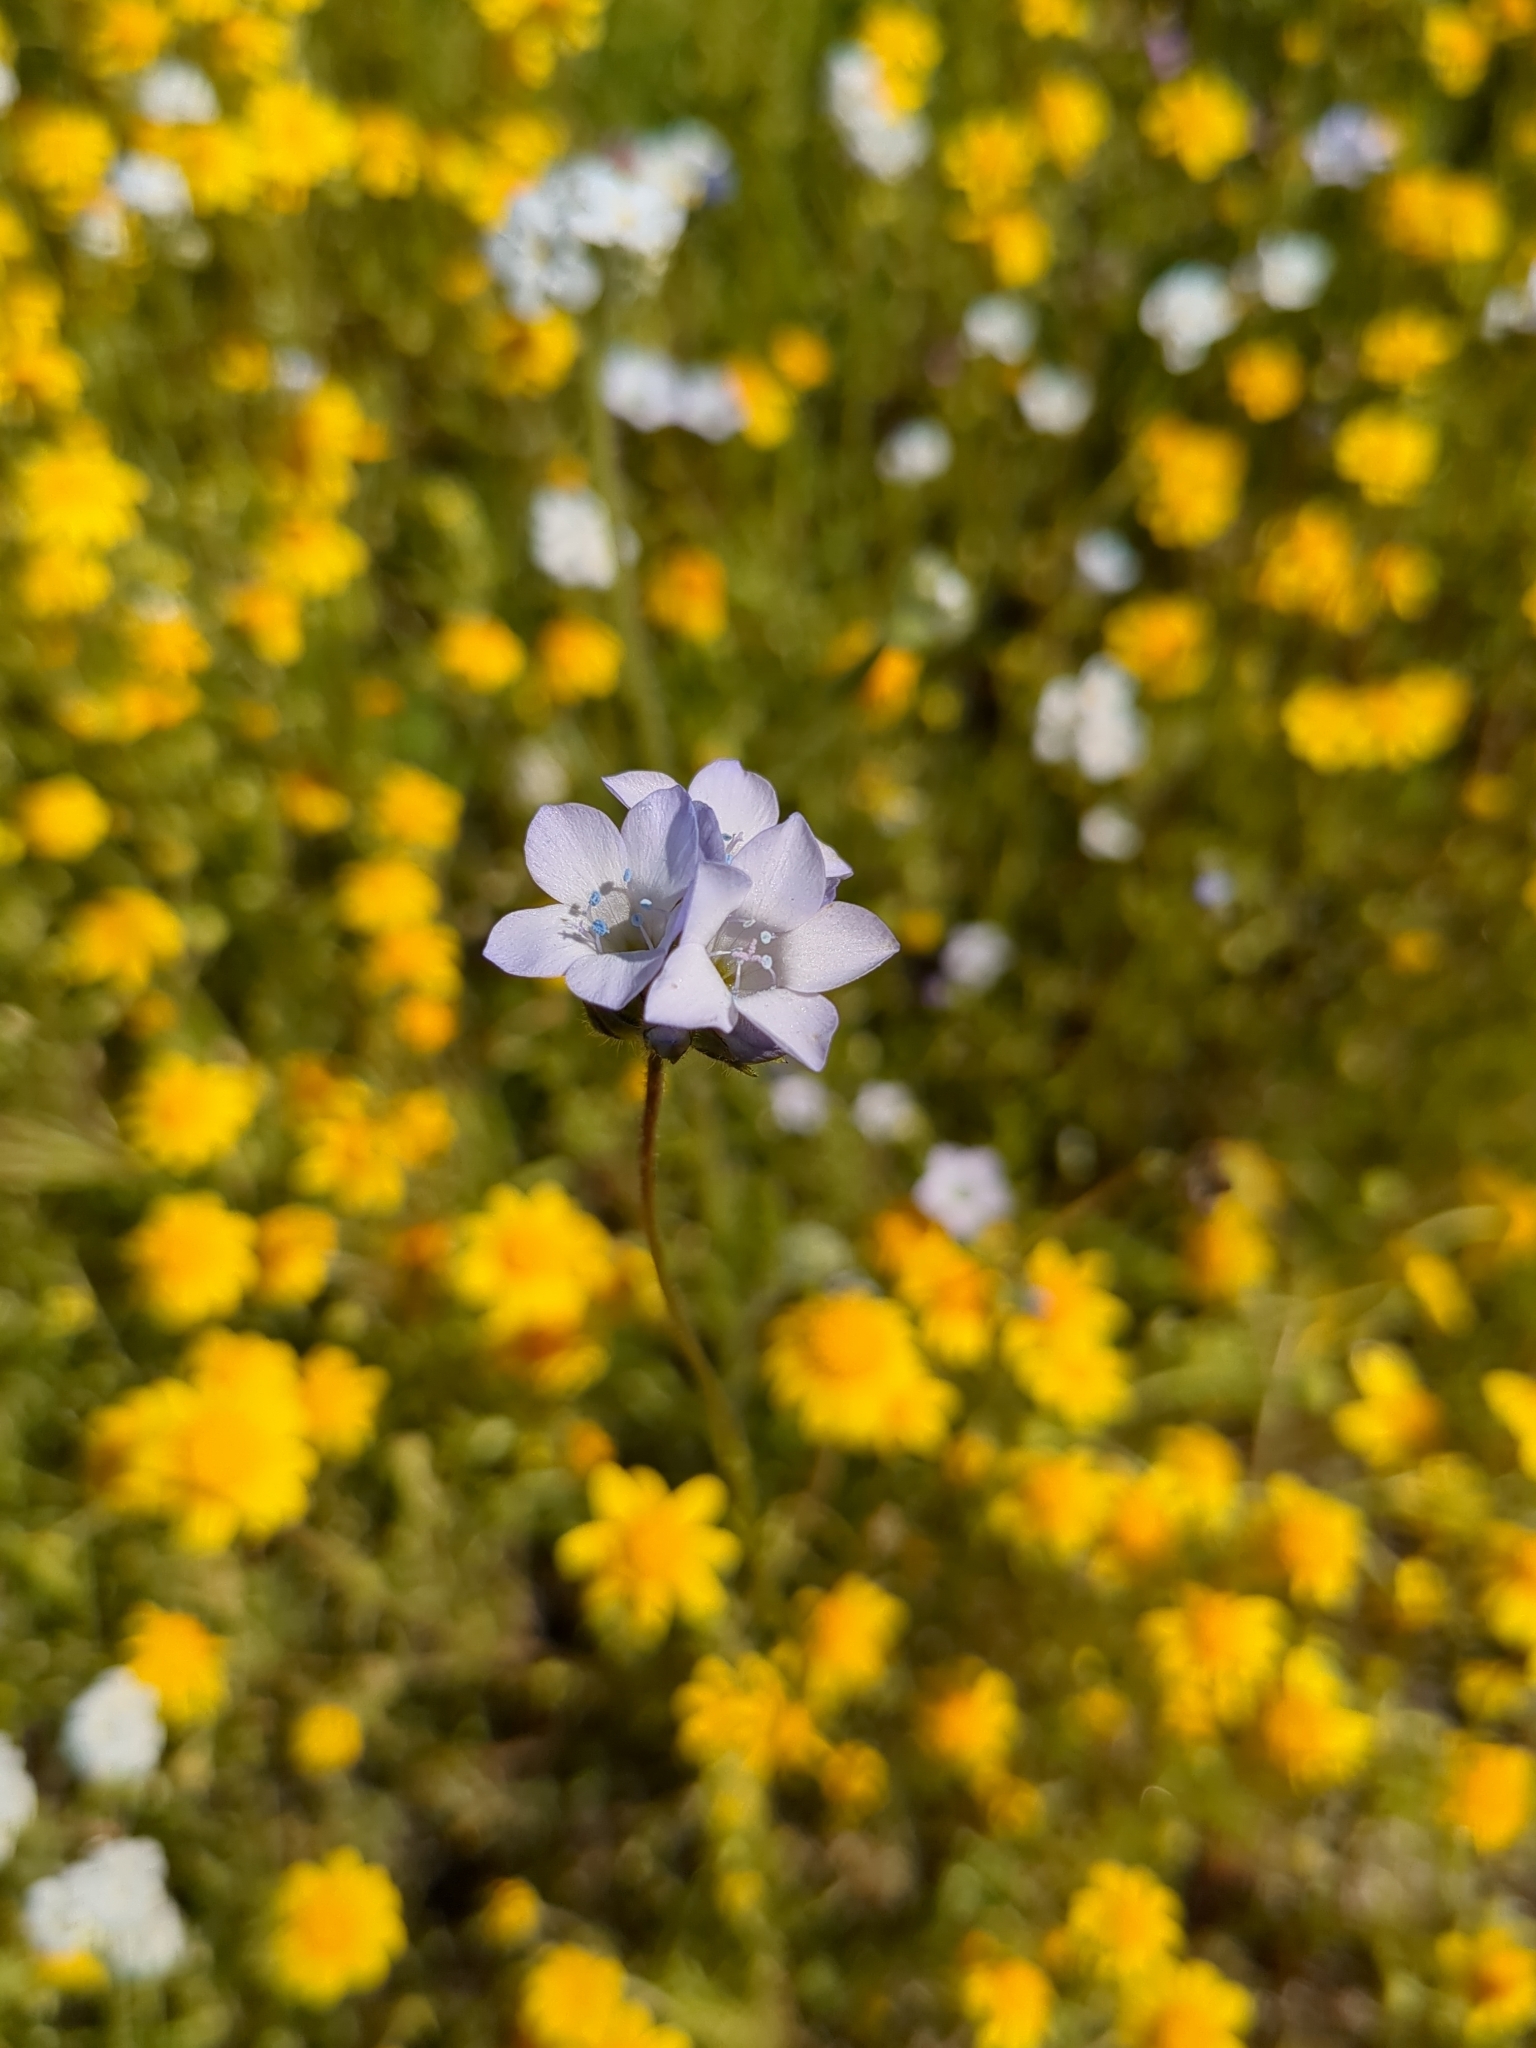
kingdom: Plantae
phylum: Tracheophyta
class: Magnoliopsida
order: Ericales
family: Polemoniaceae
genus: Gilia
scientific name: Gilia angelensis
